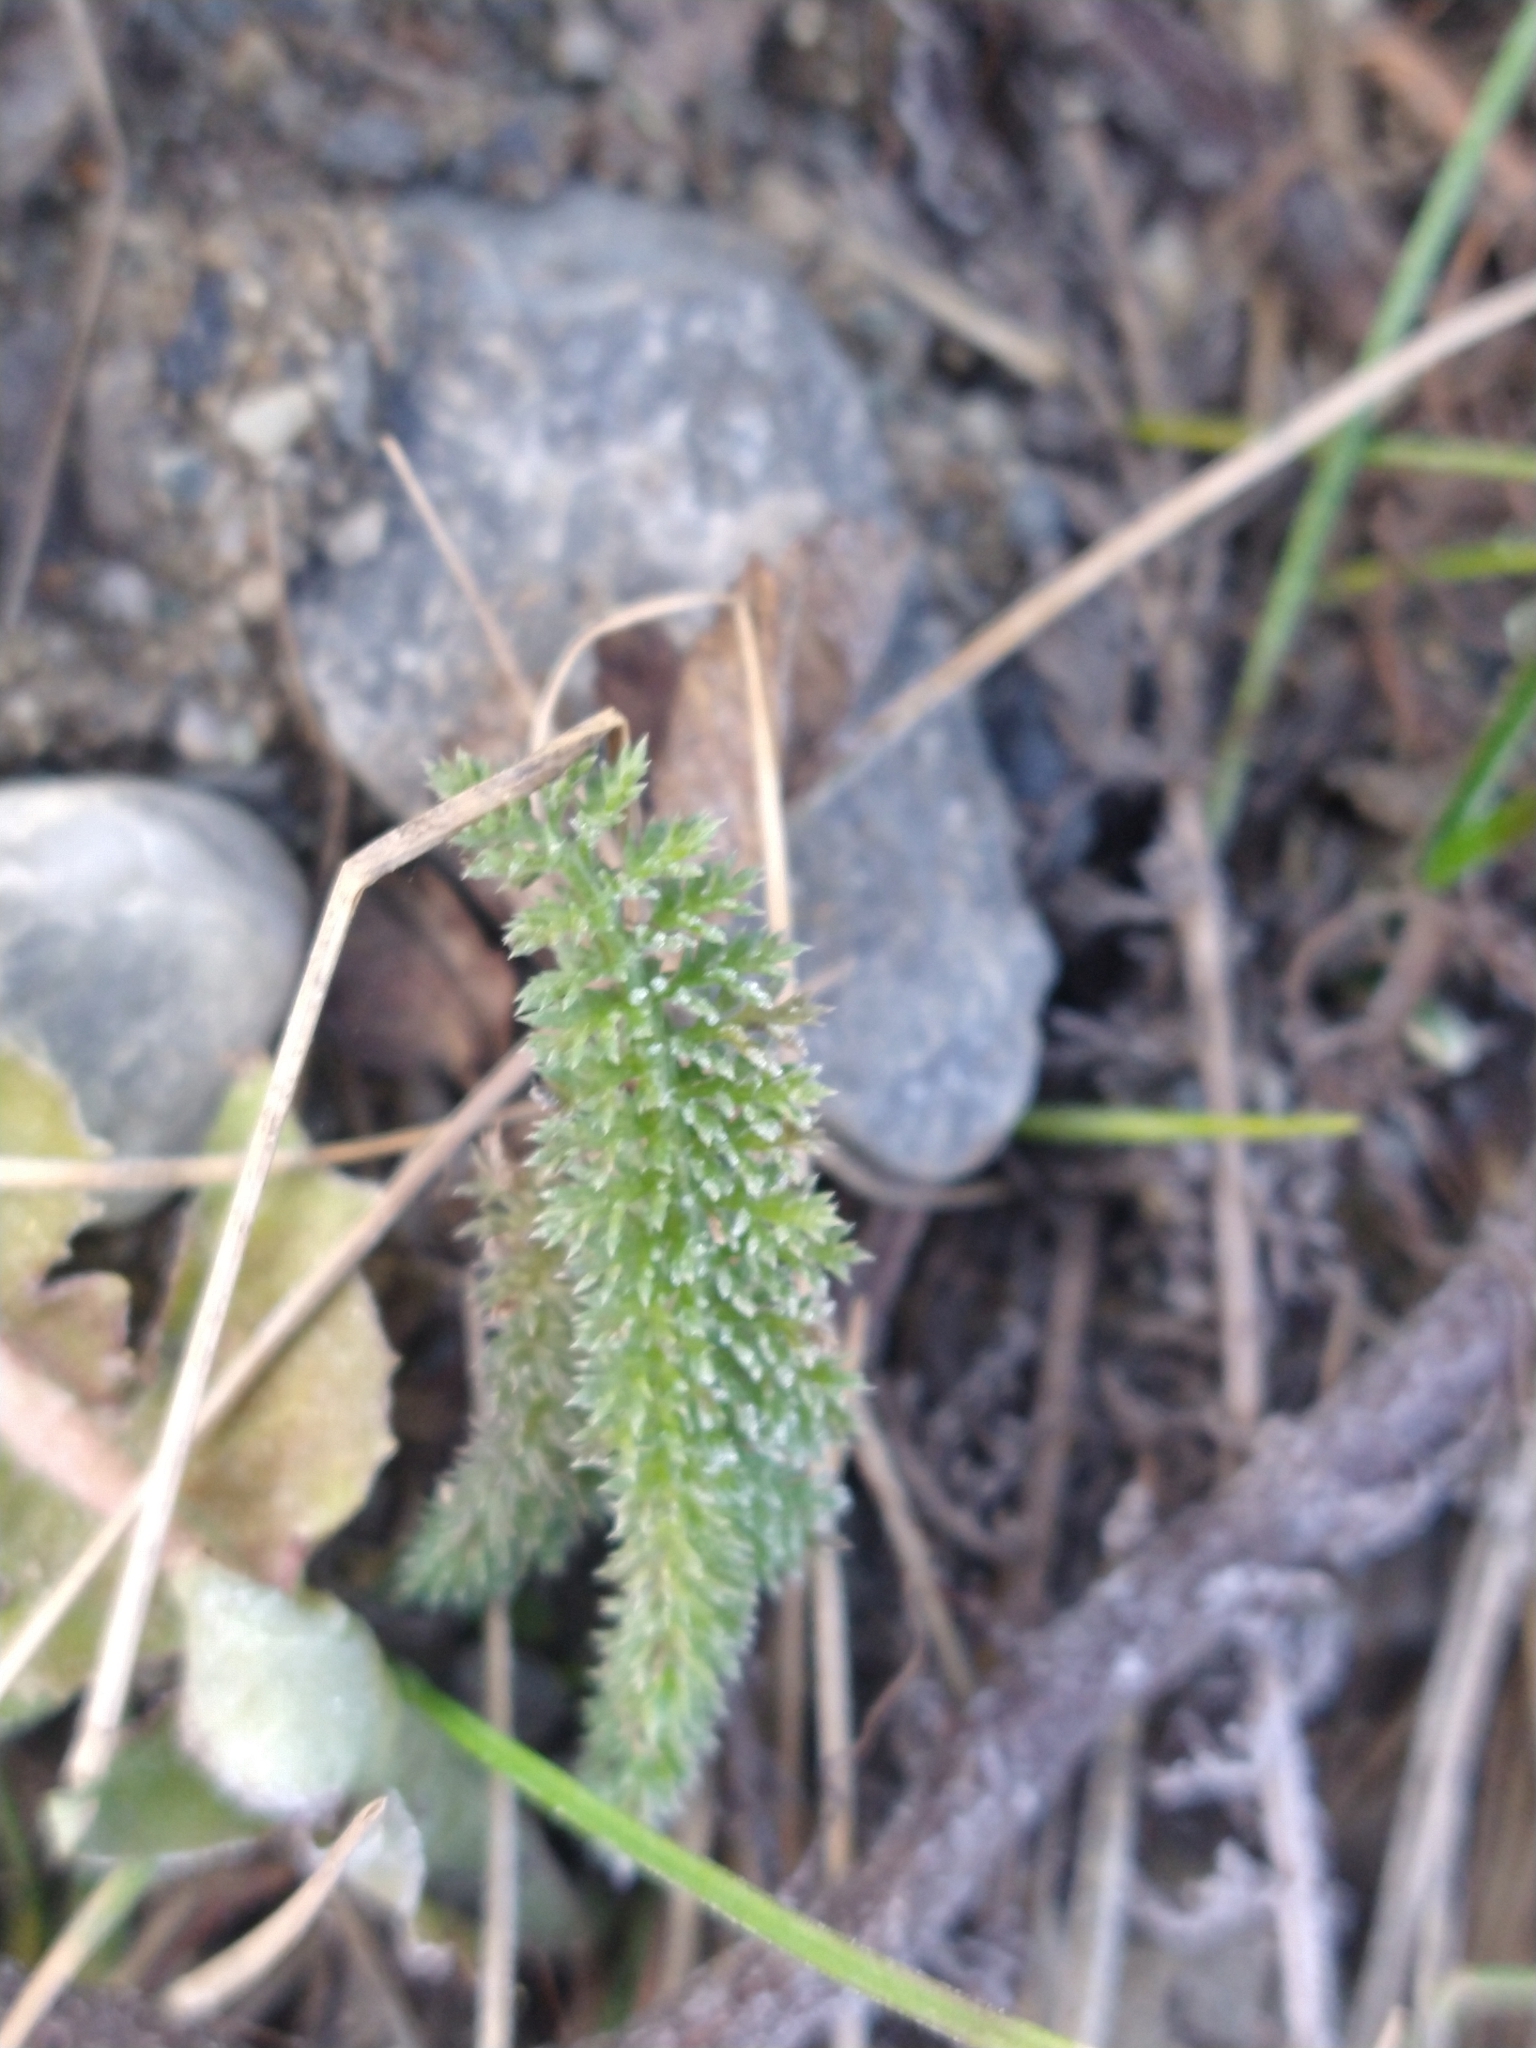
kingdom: Plantae
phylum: Tracheophyta
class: Magnoliopsida
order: Asterales
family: Asteraceae
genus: Achillea
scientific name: Achillea millefolium
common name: Yarrow
